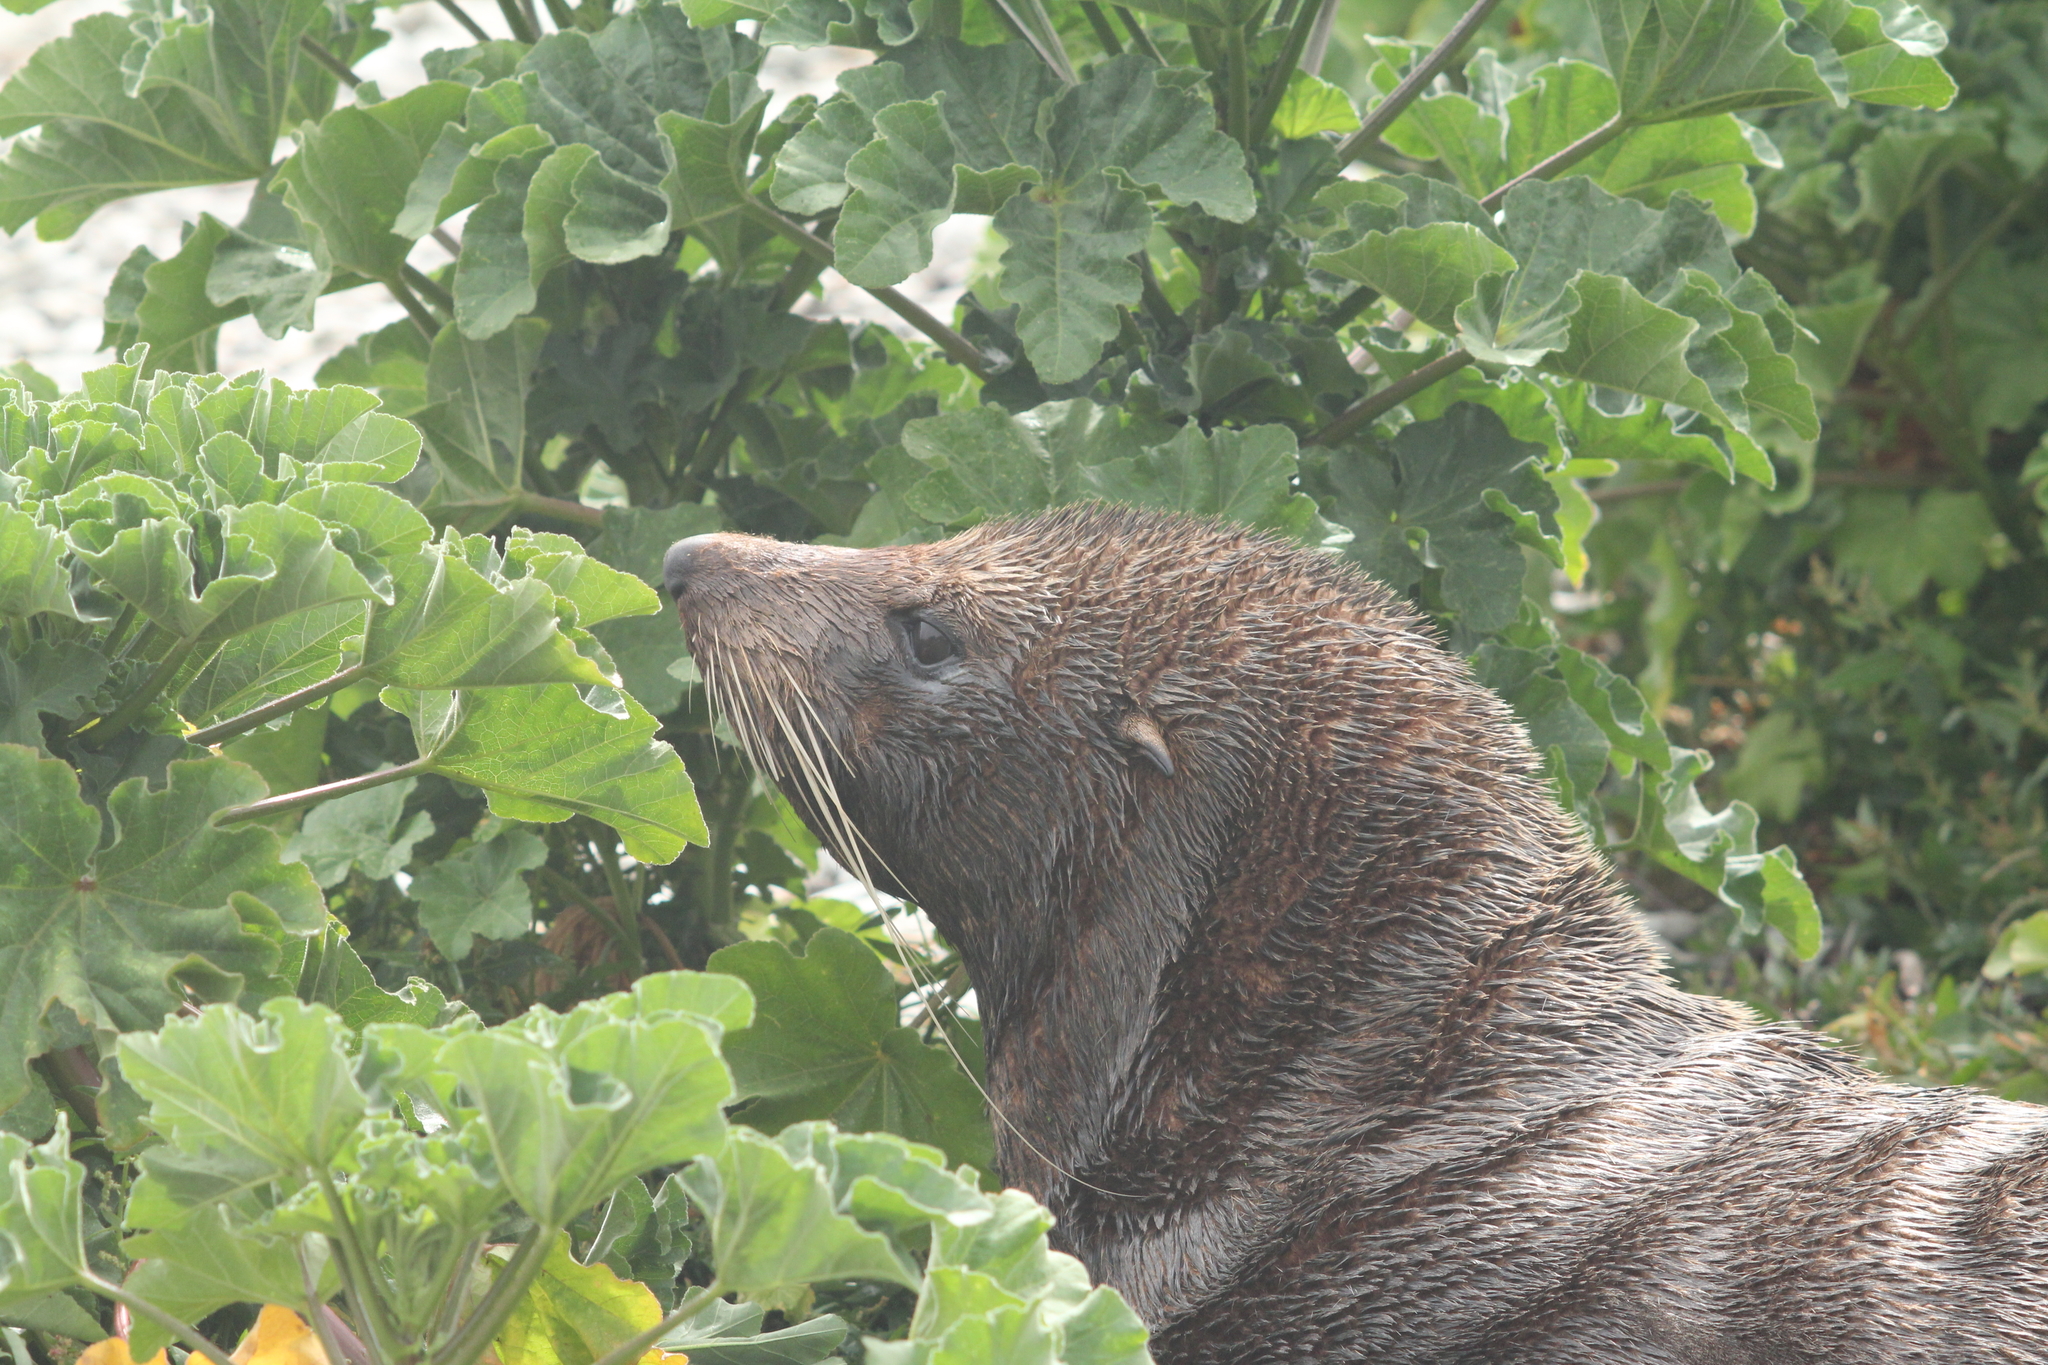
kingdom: Animalia
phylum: Chordata
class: Mammalia
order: Carnivora
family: Otariidae
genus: Arctocephalus
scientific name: Arctocephalus forsteri
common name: New zealand fur seal
